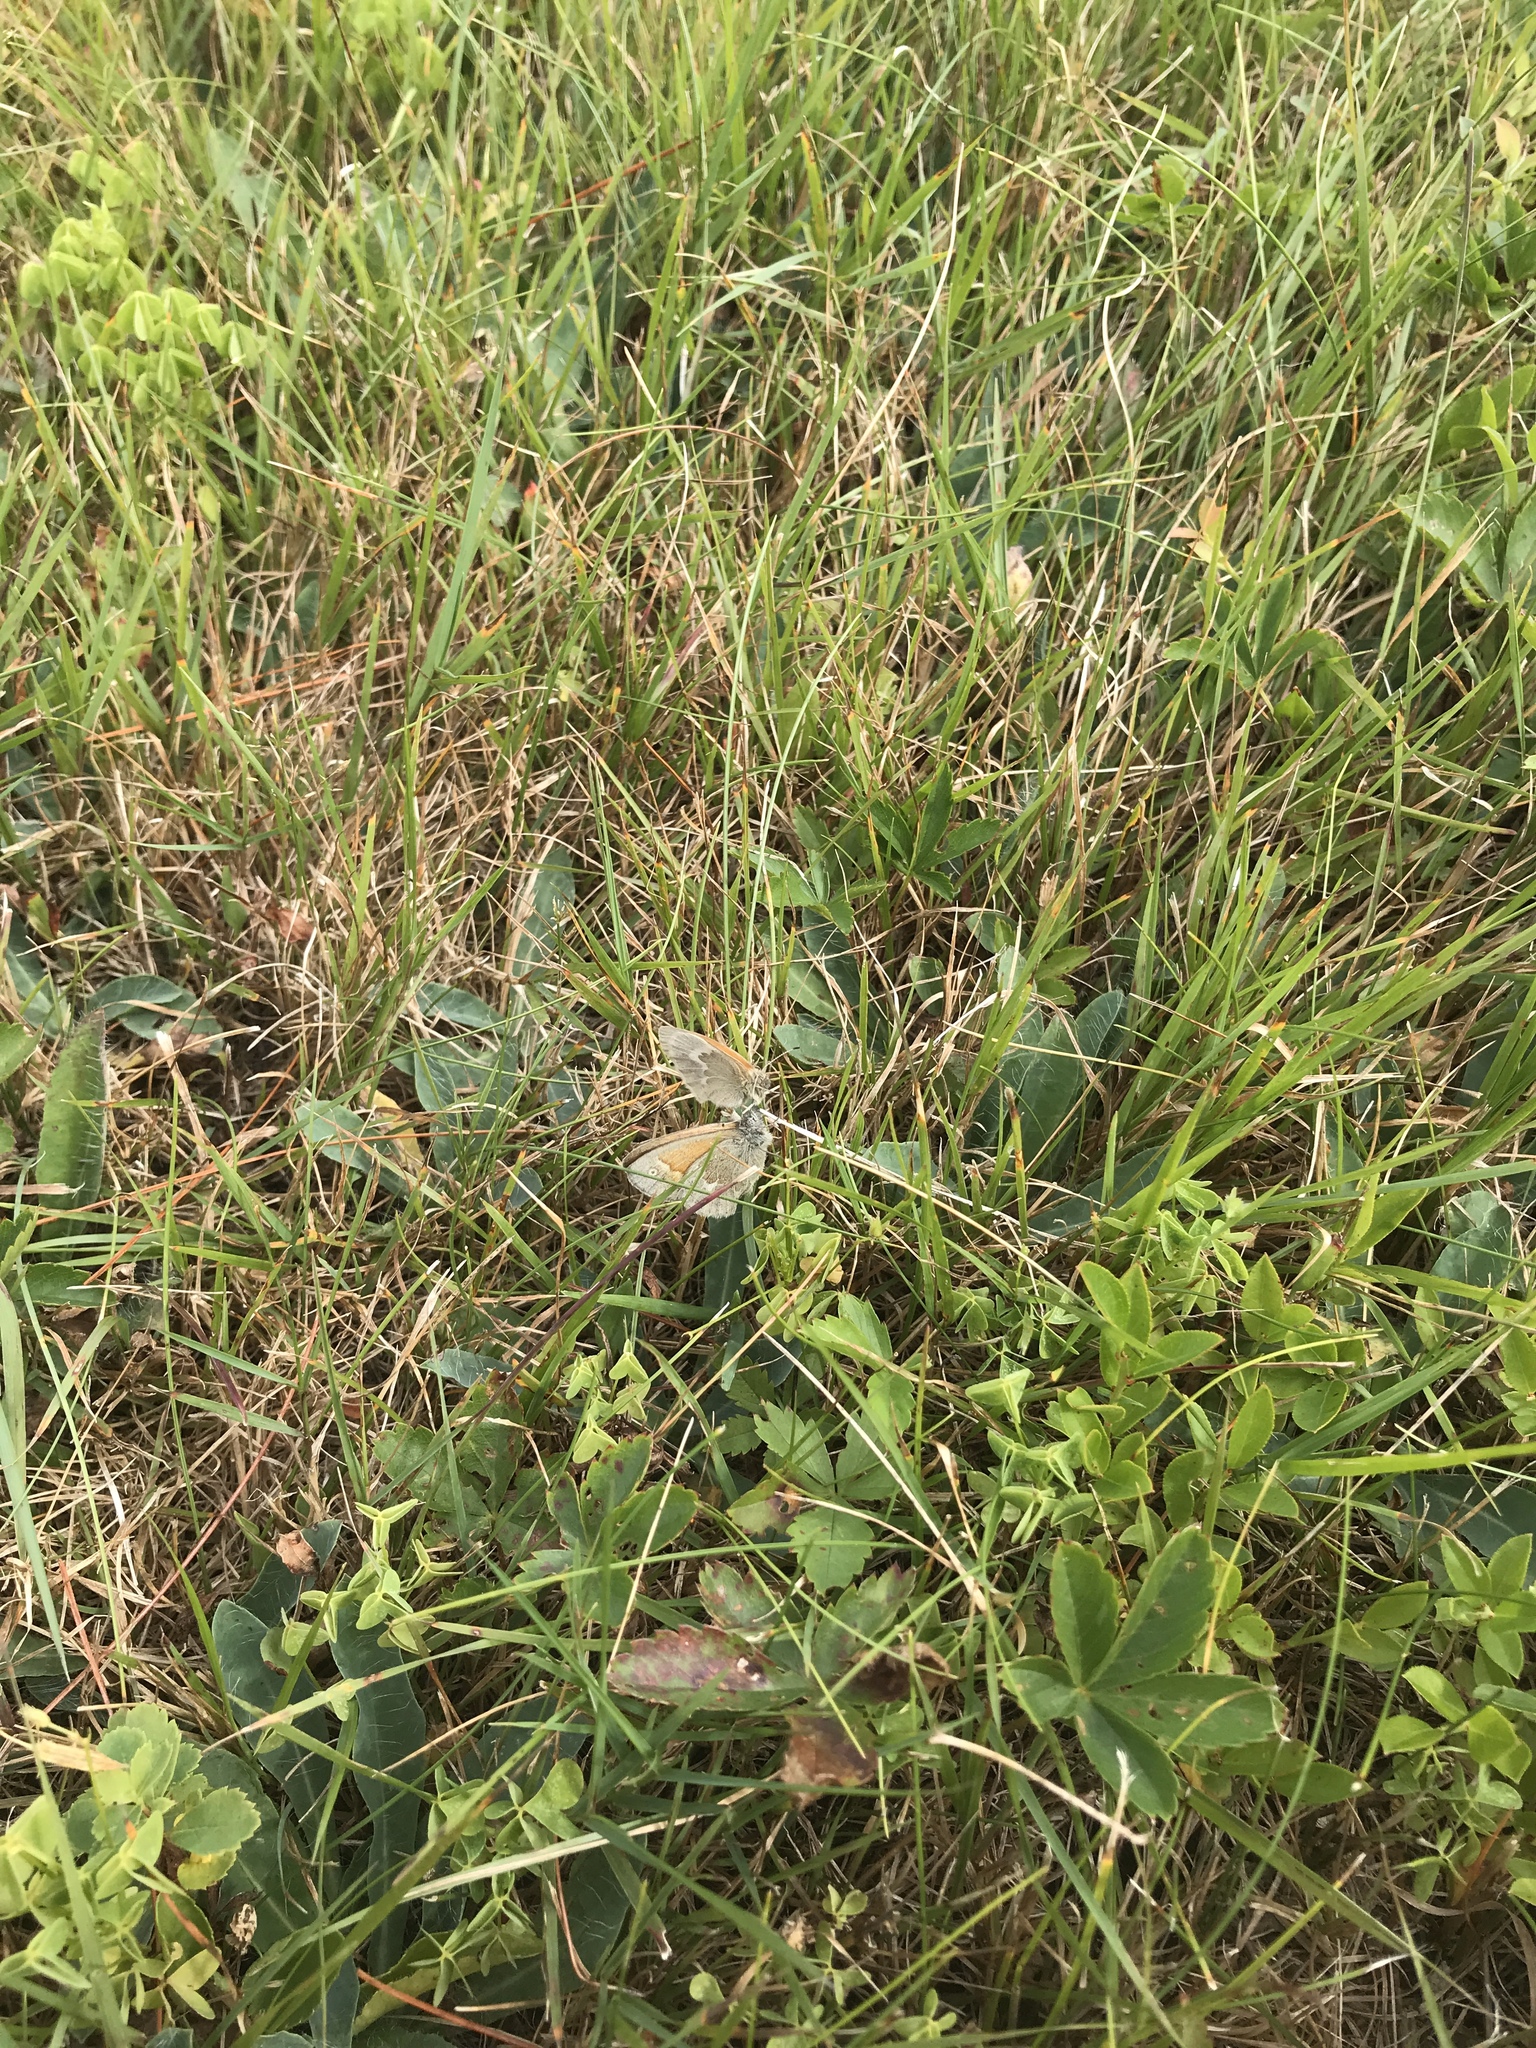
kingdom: Animalia
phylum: Arthropoda
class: Insecta
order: Lepidoptera
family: Nymphalidae
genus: Coenonympha
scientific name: Coenonympha california
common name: Common ringlet
